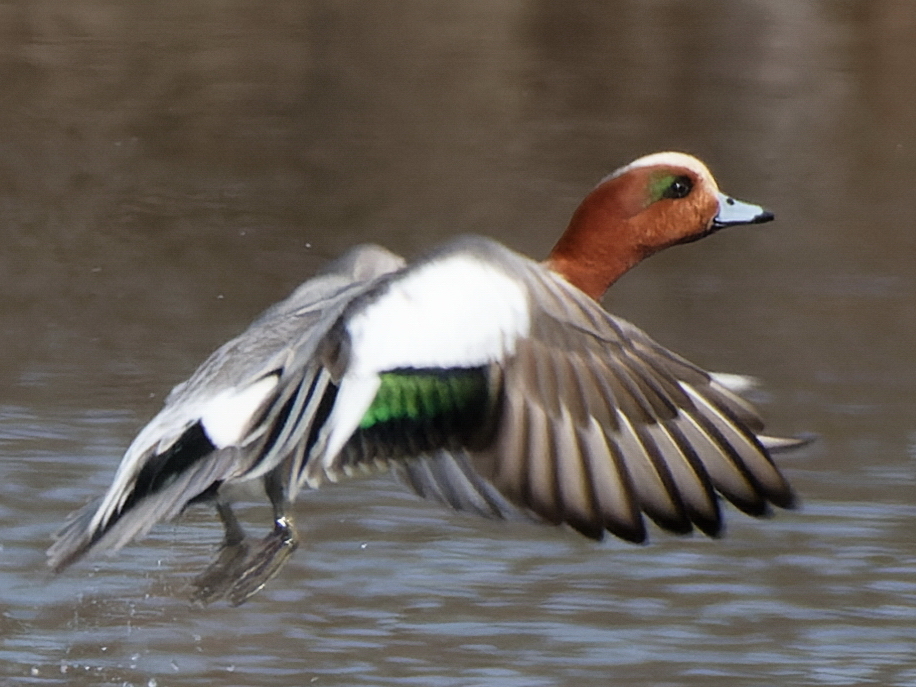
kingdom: Animalia
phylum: Chordata
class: Aves
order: Anseriformes
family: Anatidae
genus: Mareca
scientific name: Mareca penelope
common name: Eurasian wigeon
